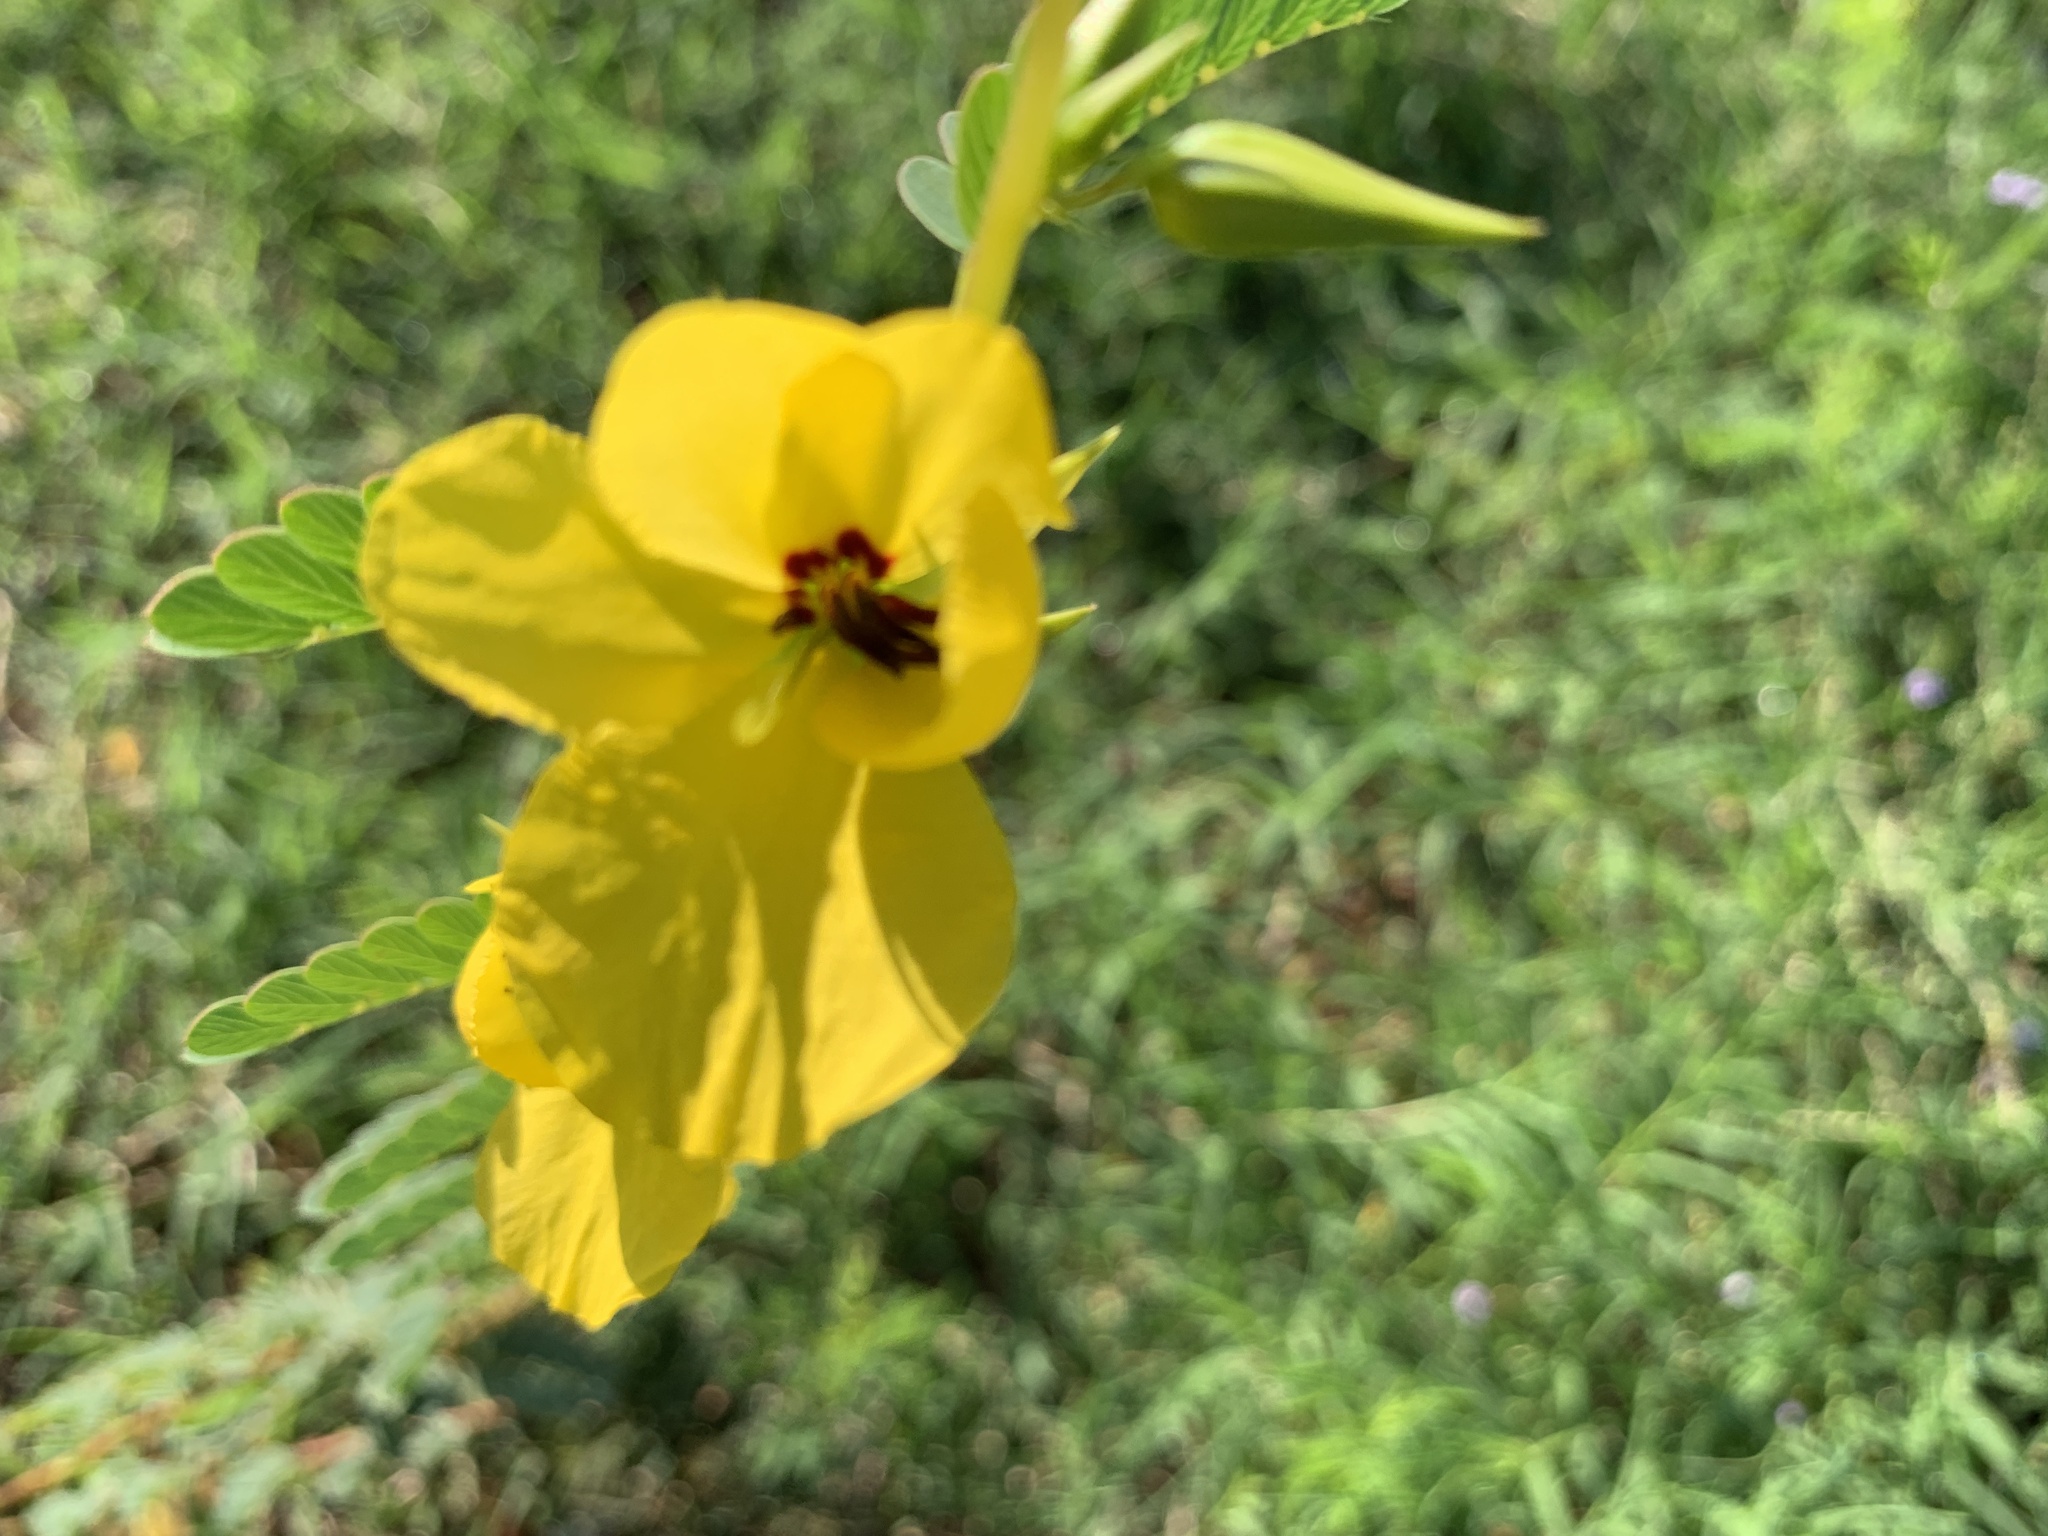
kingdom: Plantae
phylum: Tracheophyta
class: Magnoliopsida
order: Fabales
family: Fabaceae
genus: Chamaecrista
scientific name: Chamaecrista fasciculata
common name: Golden cassia
